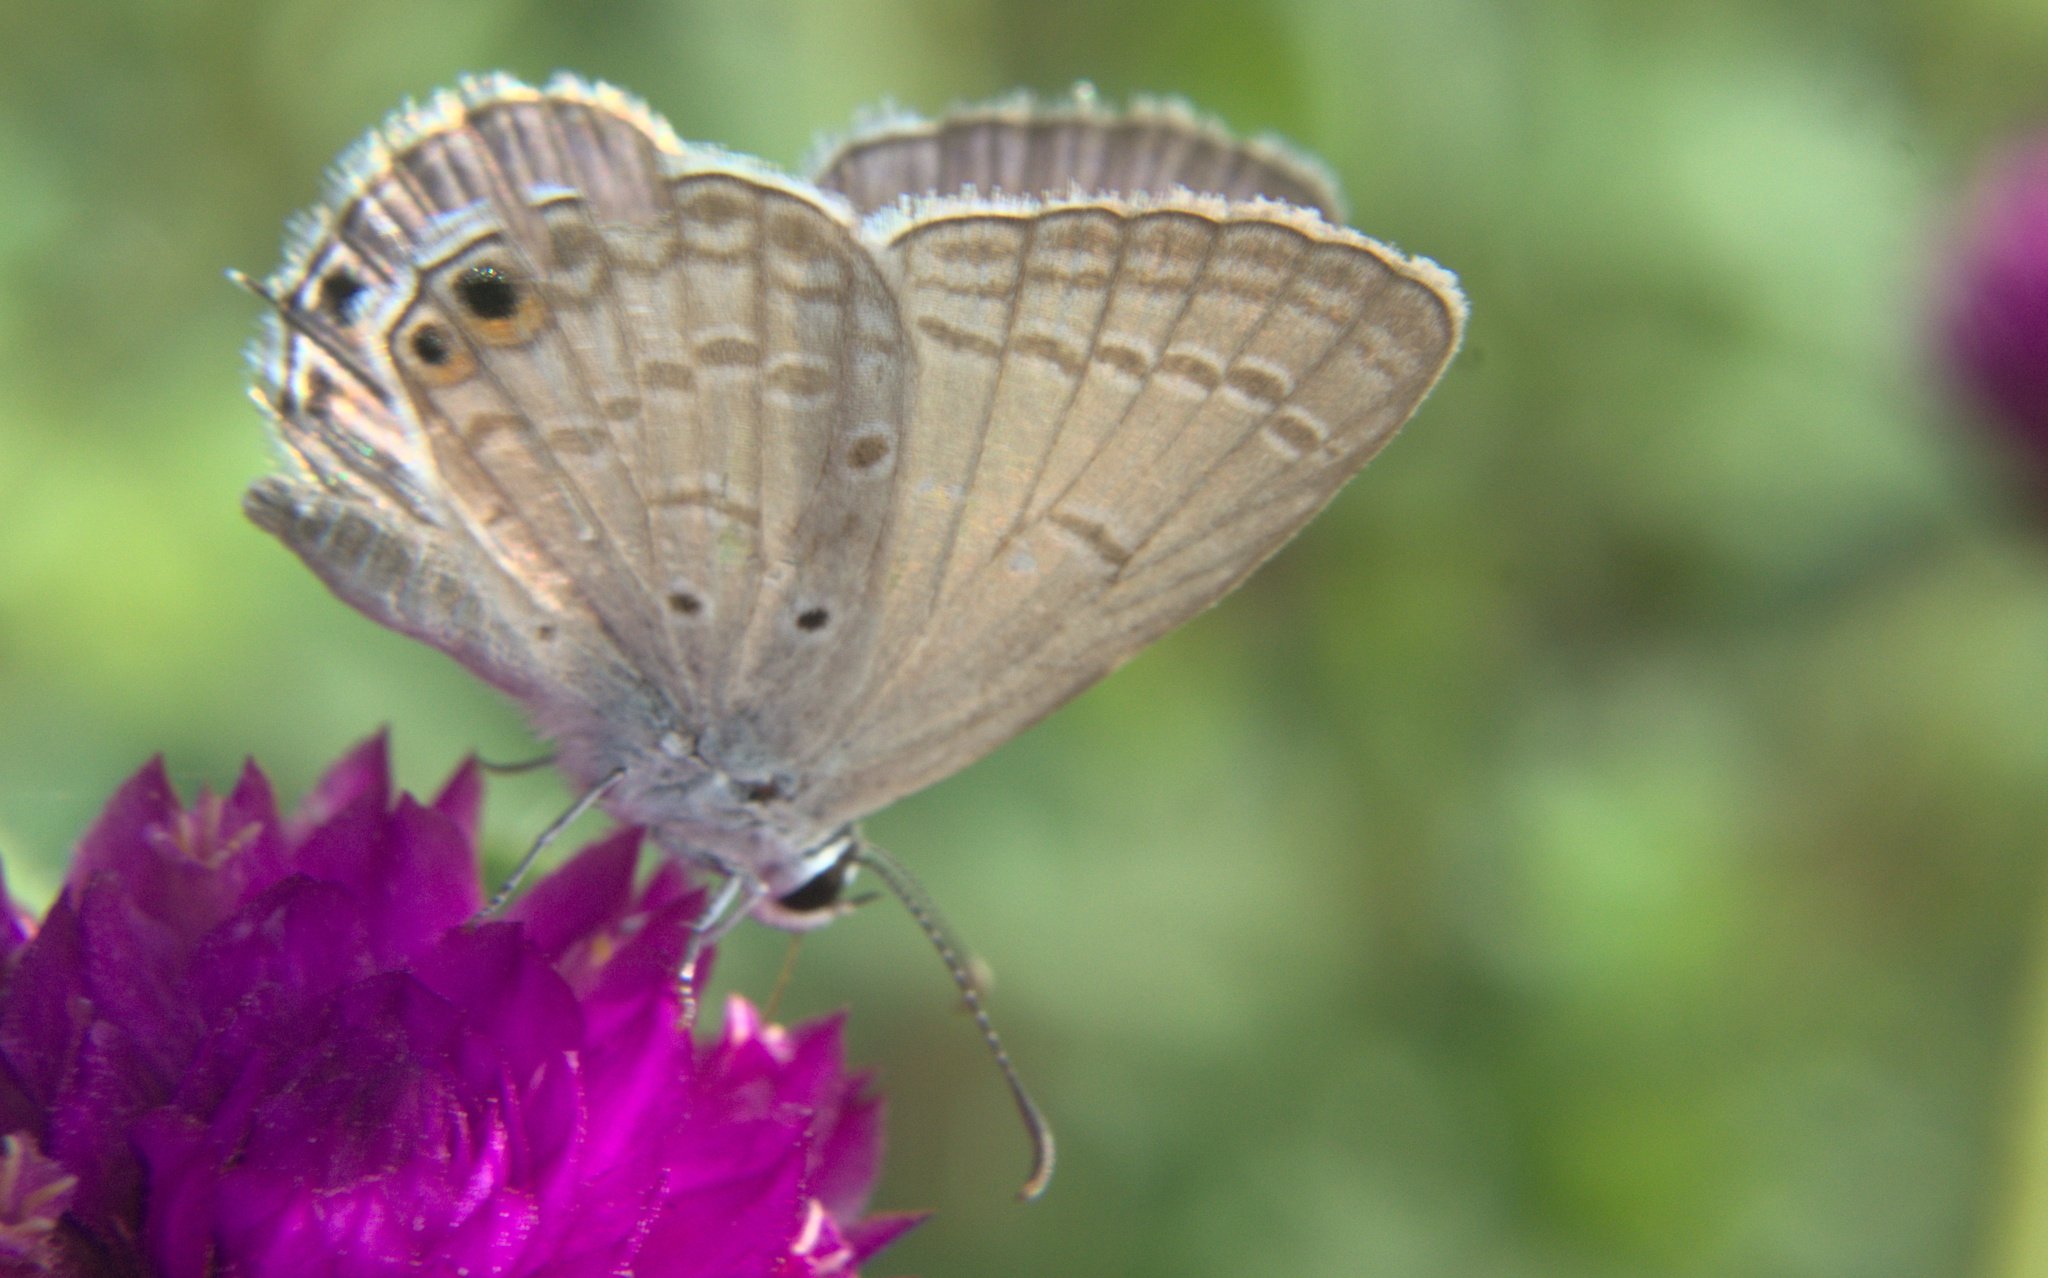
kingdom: Animalia
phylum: Arthropoda
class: Insecta
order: Lepidoptera
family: Lycaenidae
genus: Euchrysops
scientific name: Euchrysops cnejus
